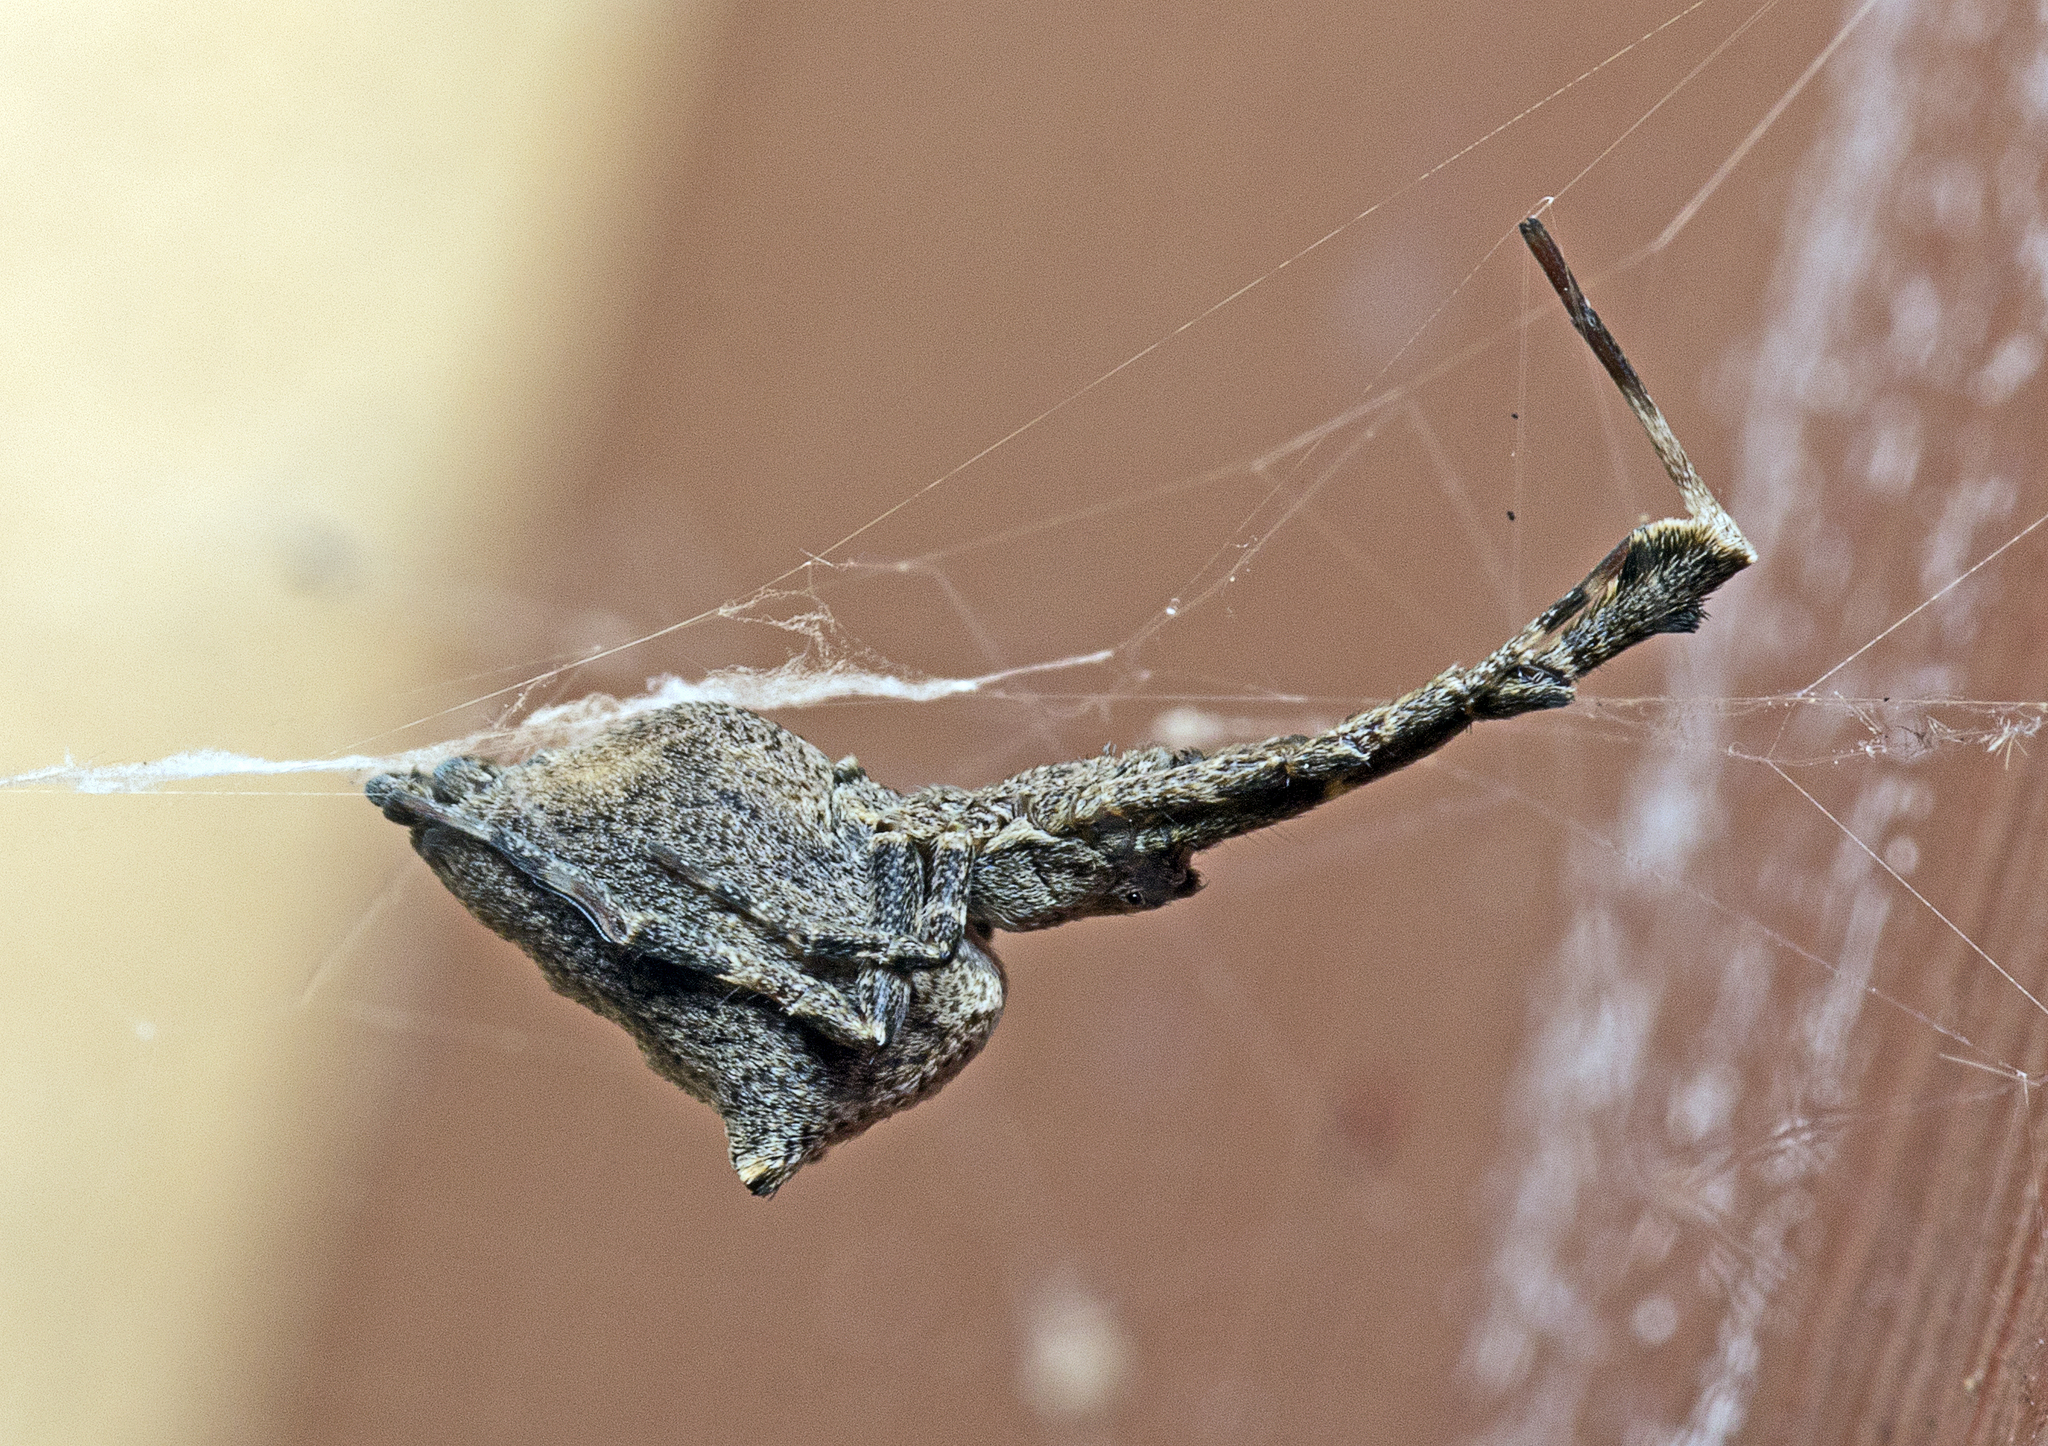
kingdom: Animalia
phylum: Arthropoda
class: Arachnida
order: Araneae
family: Uloboridae
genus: Uloborus
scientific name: Uloborus barbipes
